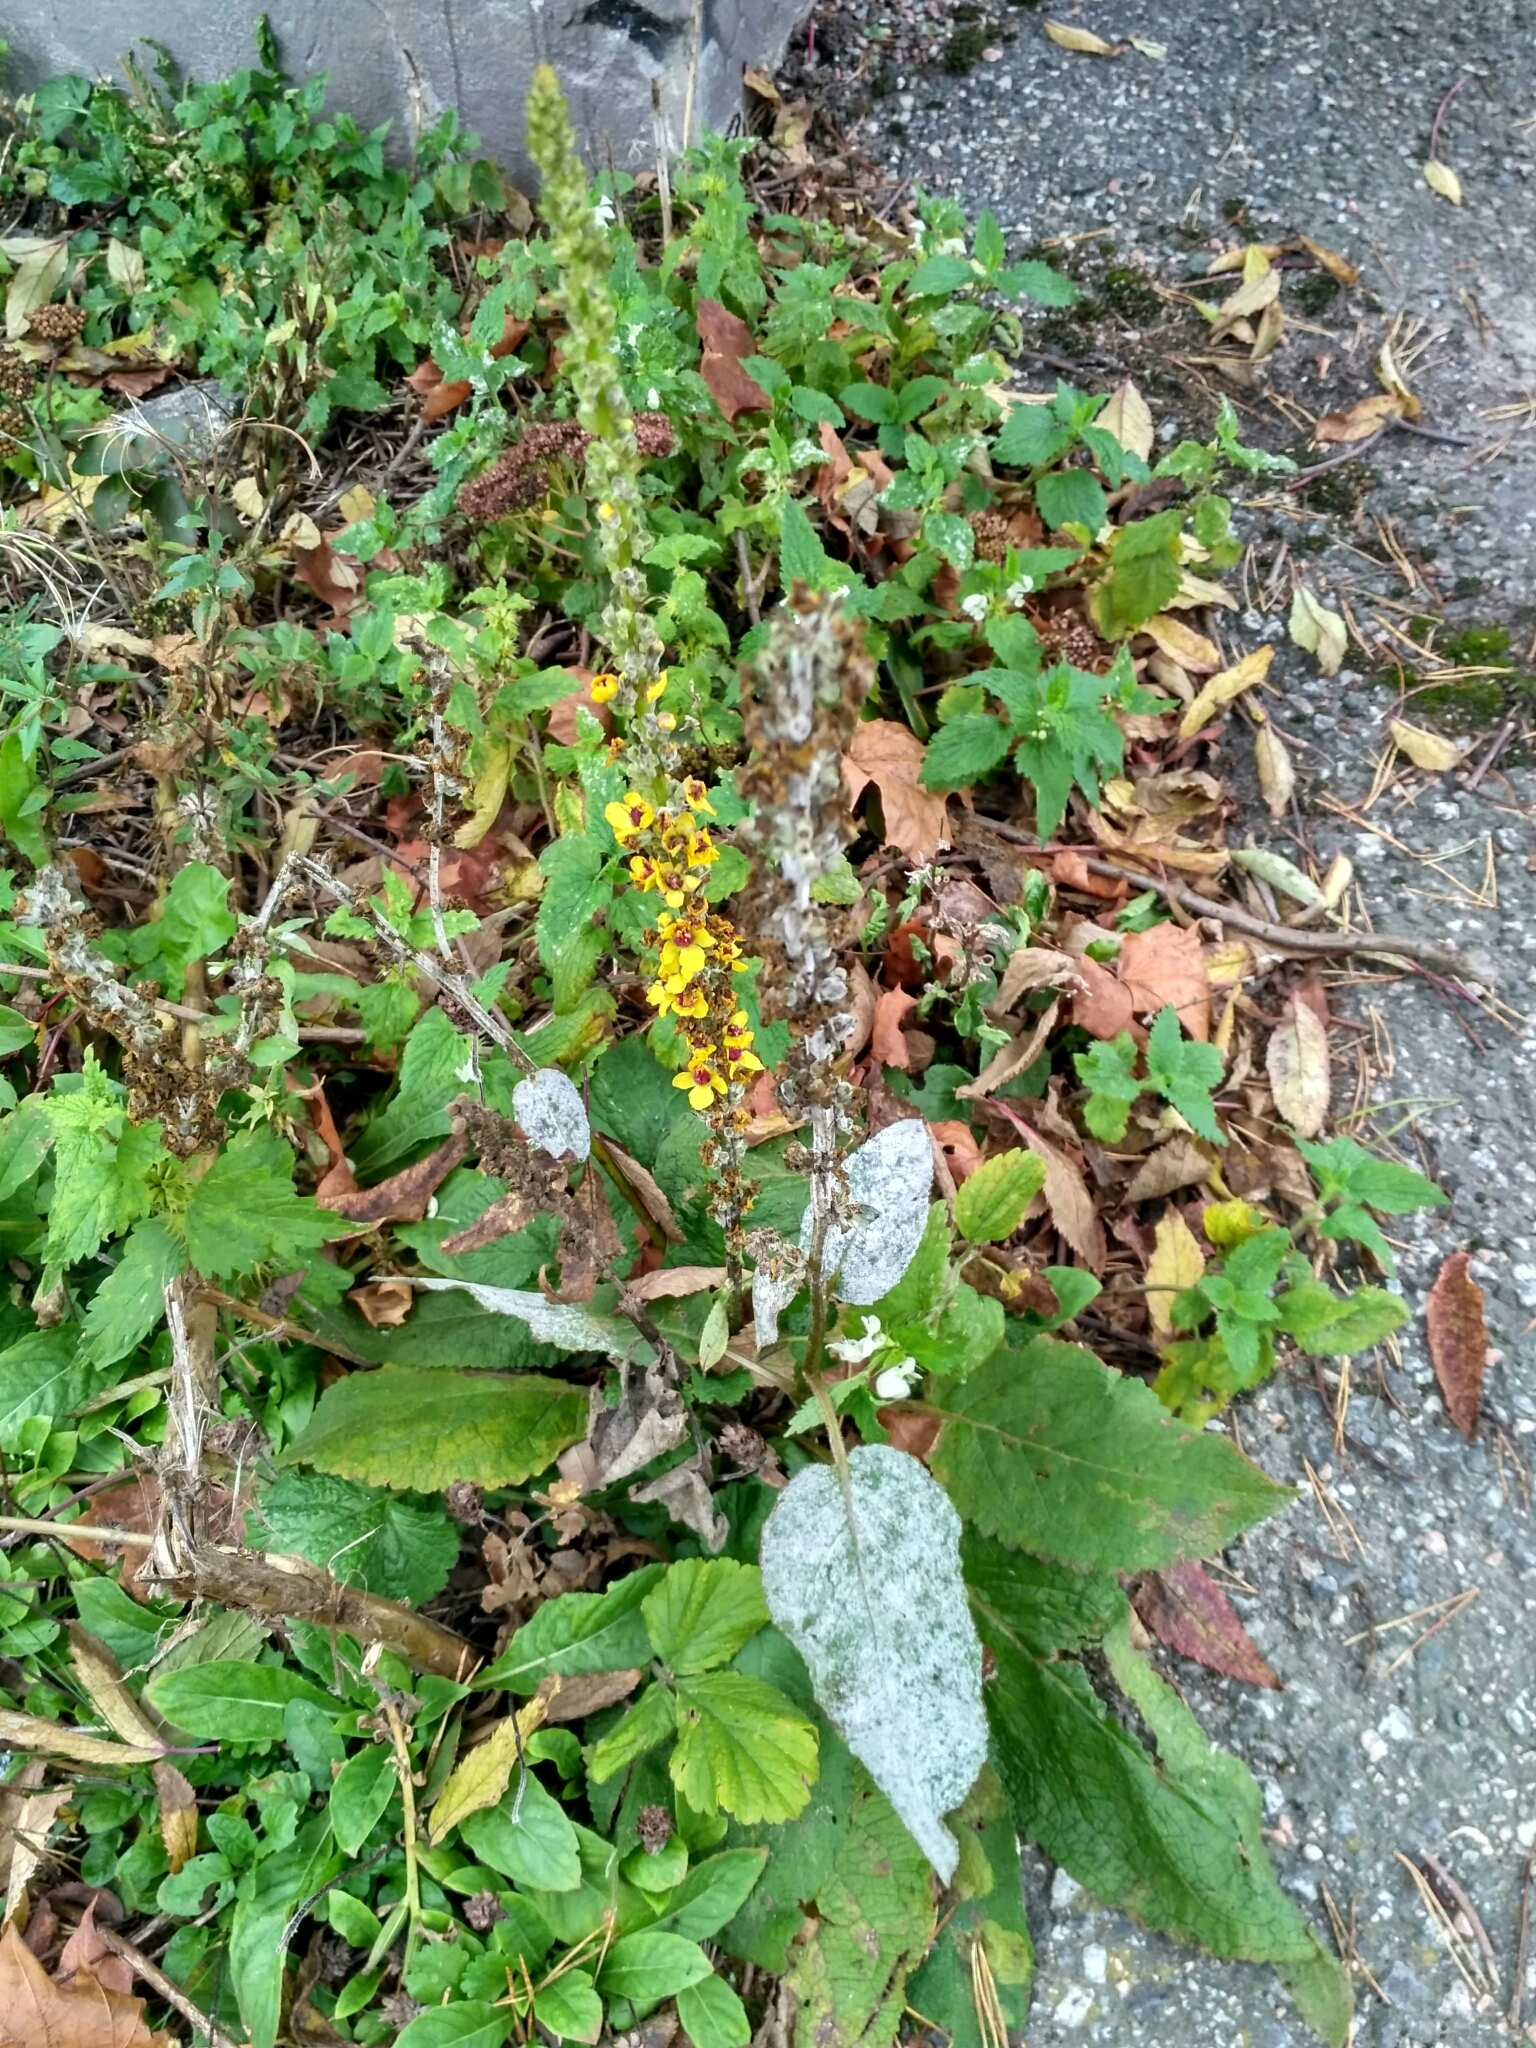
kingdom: Plantae
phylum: Tracheophyta
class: Magnoliopsida
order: Lamiales
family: Scrophulariaceae
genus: Verbascum
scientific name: Verbascum nigrum
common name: Dark mullein
